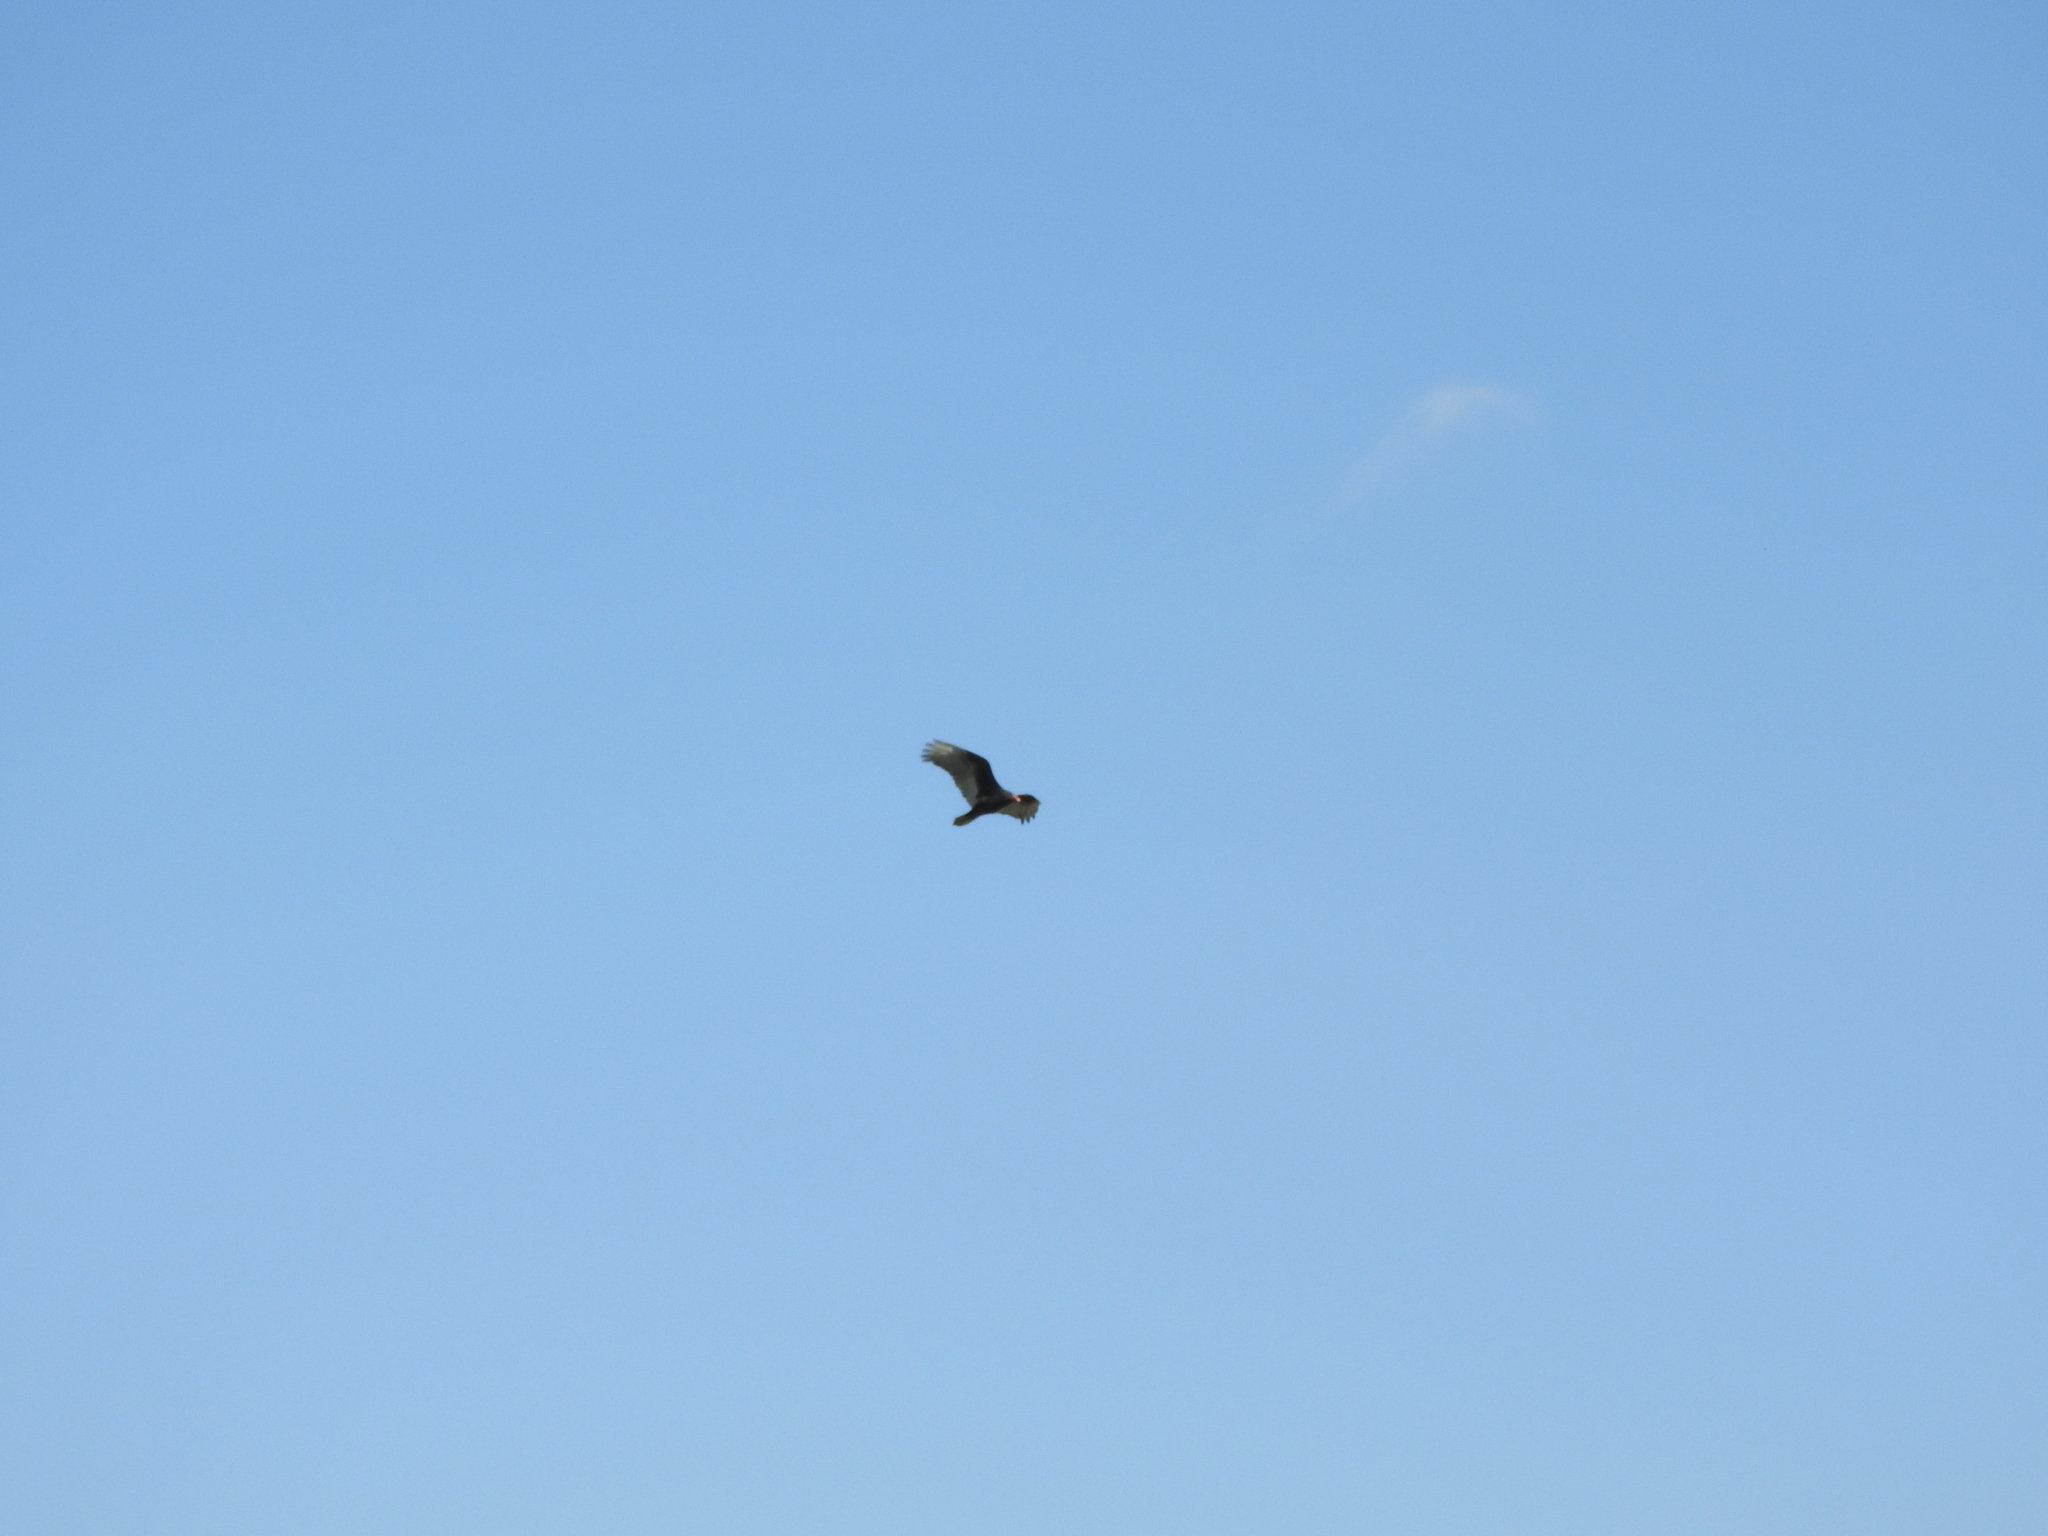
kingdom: Animalia
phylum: Chordata
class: Aves
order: Accipitriformes
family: Cathartidae
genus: Cathartes
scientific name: Cathartes aura
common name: Turkey vulture
